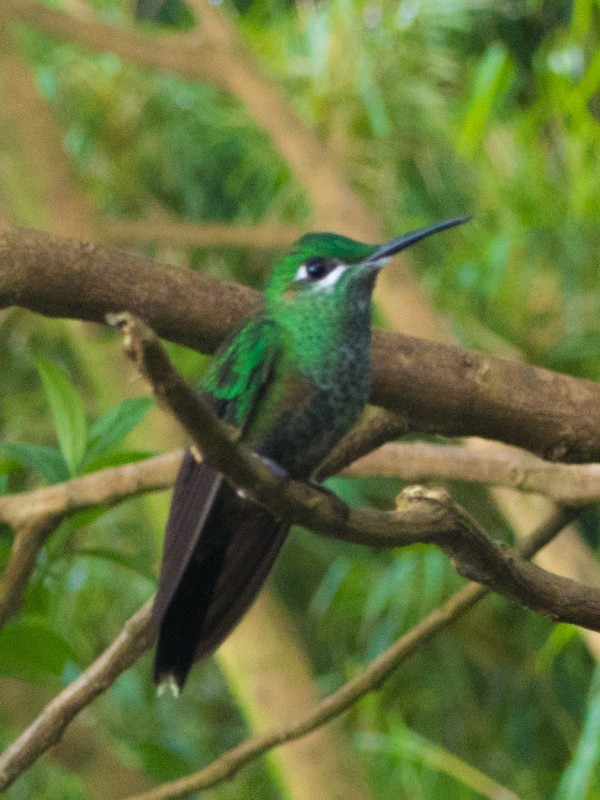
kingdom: Animalia
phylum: Chordata
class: Aves
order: Apodiformes
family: Trochilidae
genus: Heliodoxa
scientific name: Heliodoxa jacula
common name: Green-crowned brilliant
